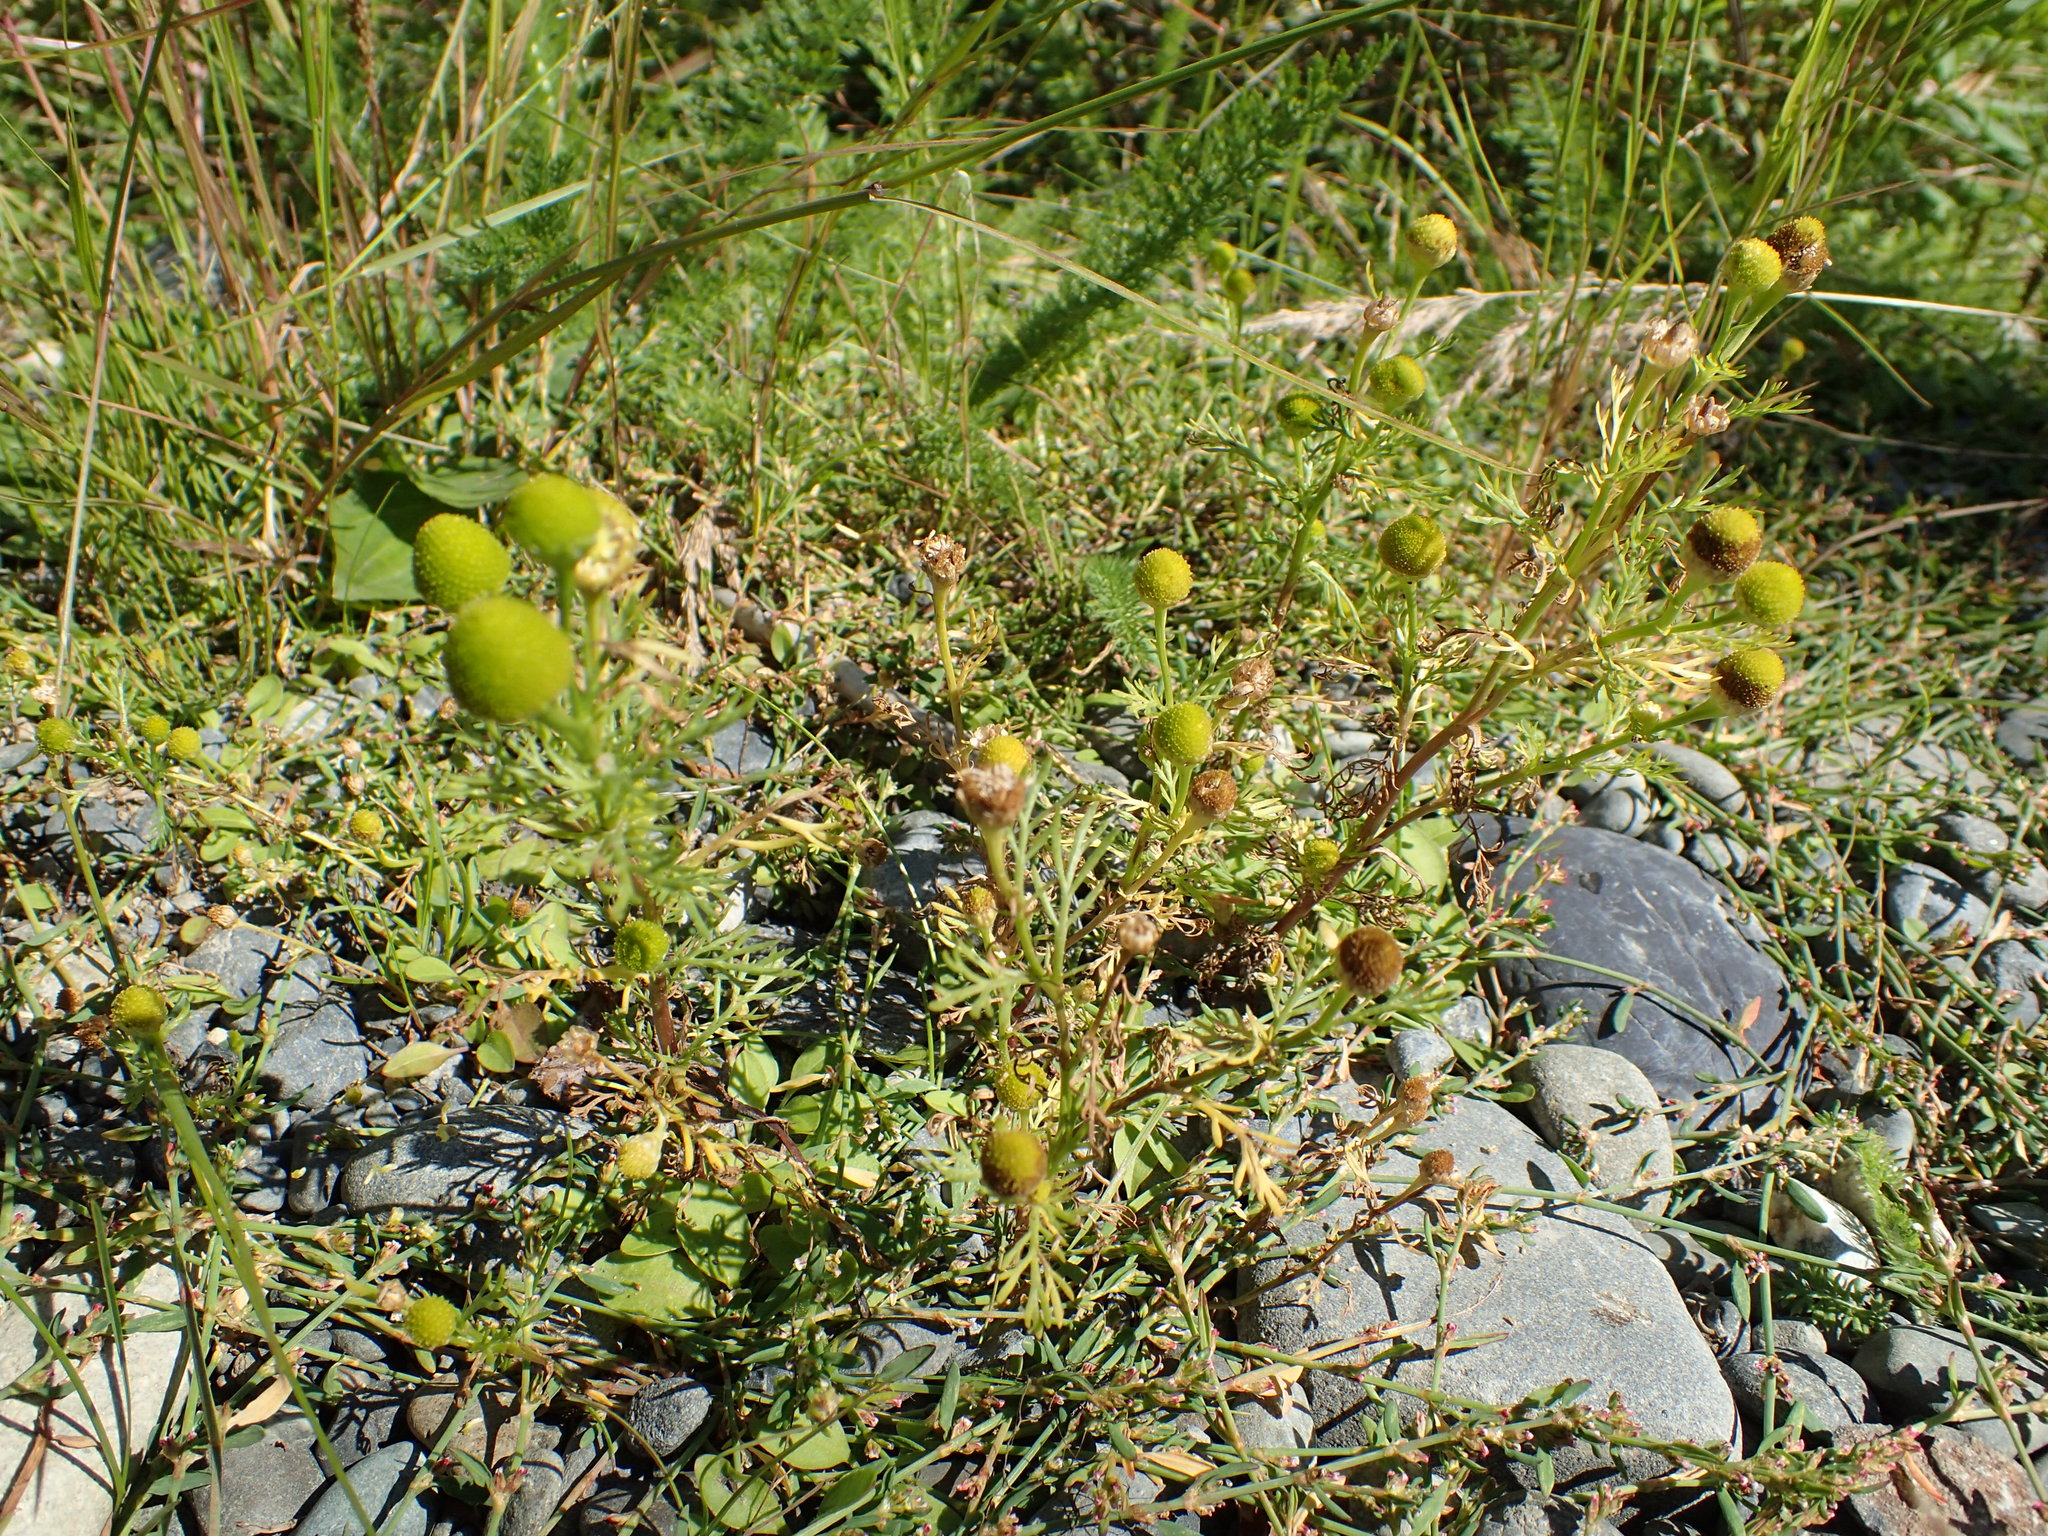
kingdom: Plantae
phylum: Tracheophyta
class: Magnoliopsida
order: Asterales
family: Asteraceae
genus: Matricaria
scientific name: Matricaria discoidea
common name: Disc mayweed
